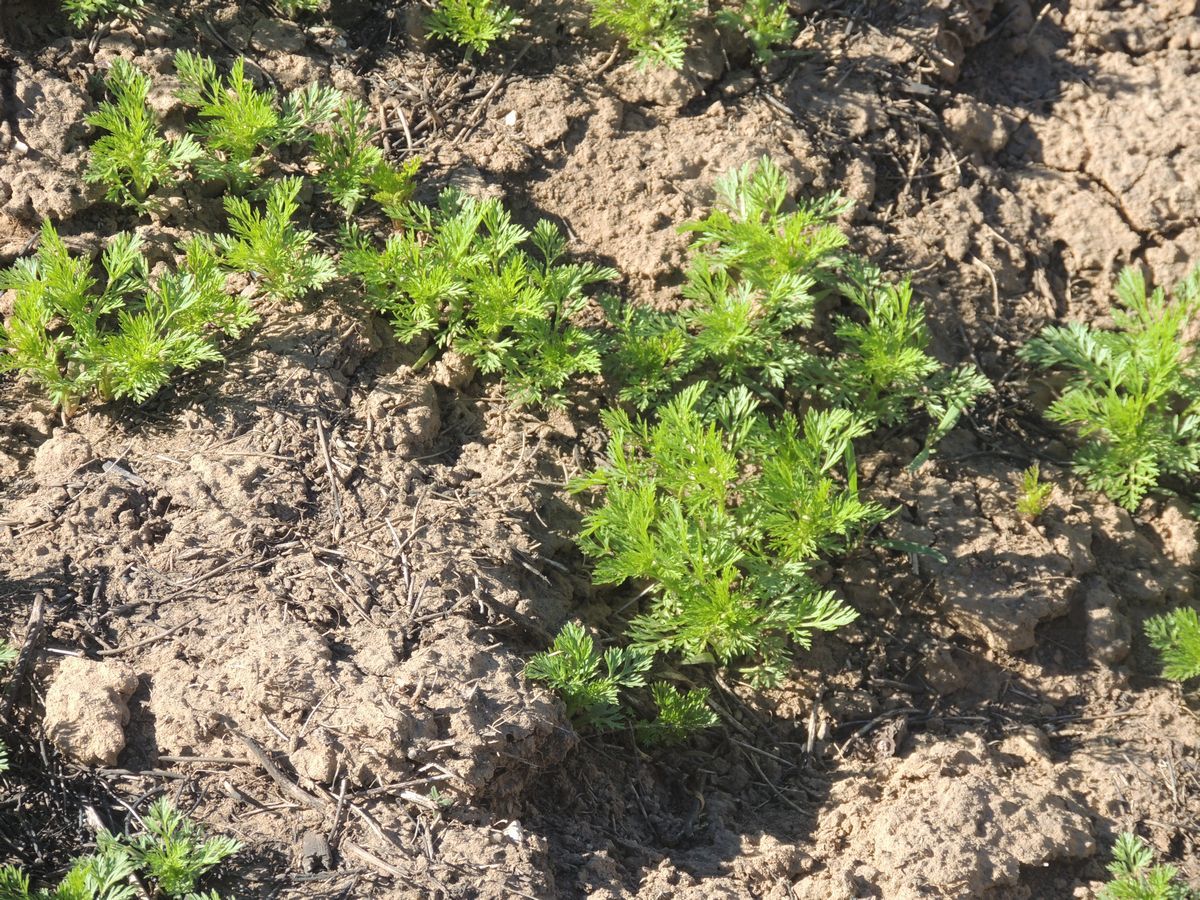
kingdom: Plantae
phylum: Tracheophyta
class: Magnoliopsida
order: Ranunculales
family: Ranunculaceae
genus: Adonis
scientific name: Adonis aestivalis
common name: Summer pheasant's-eye
